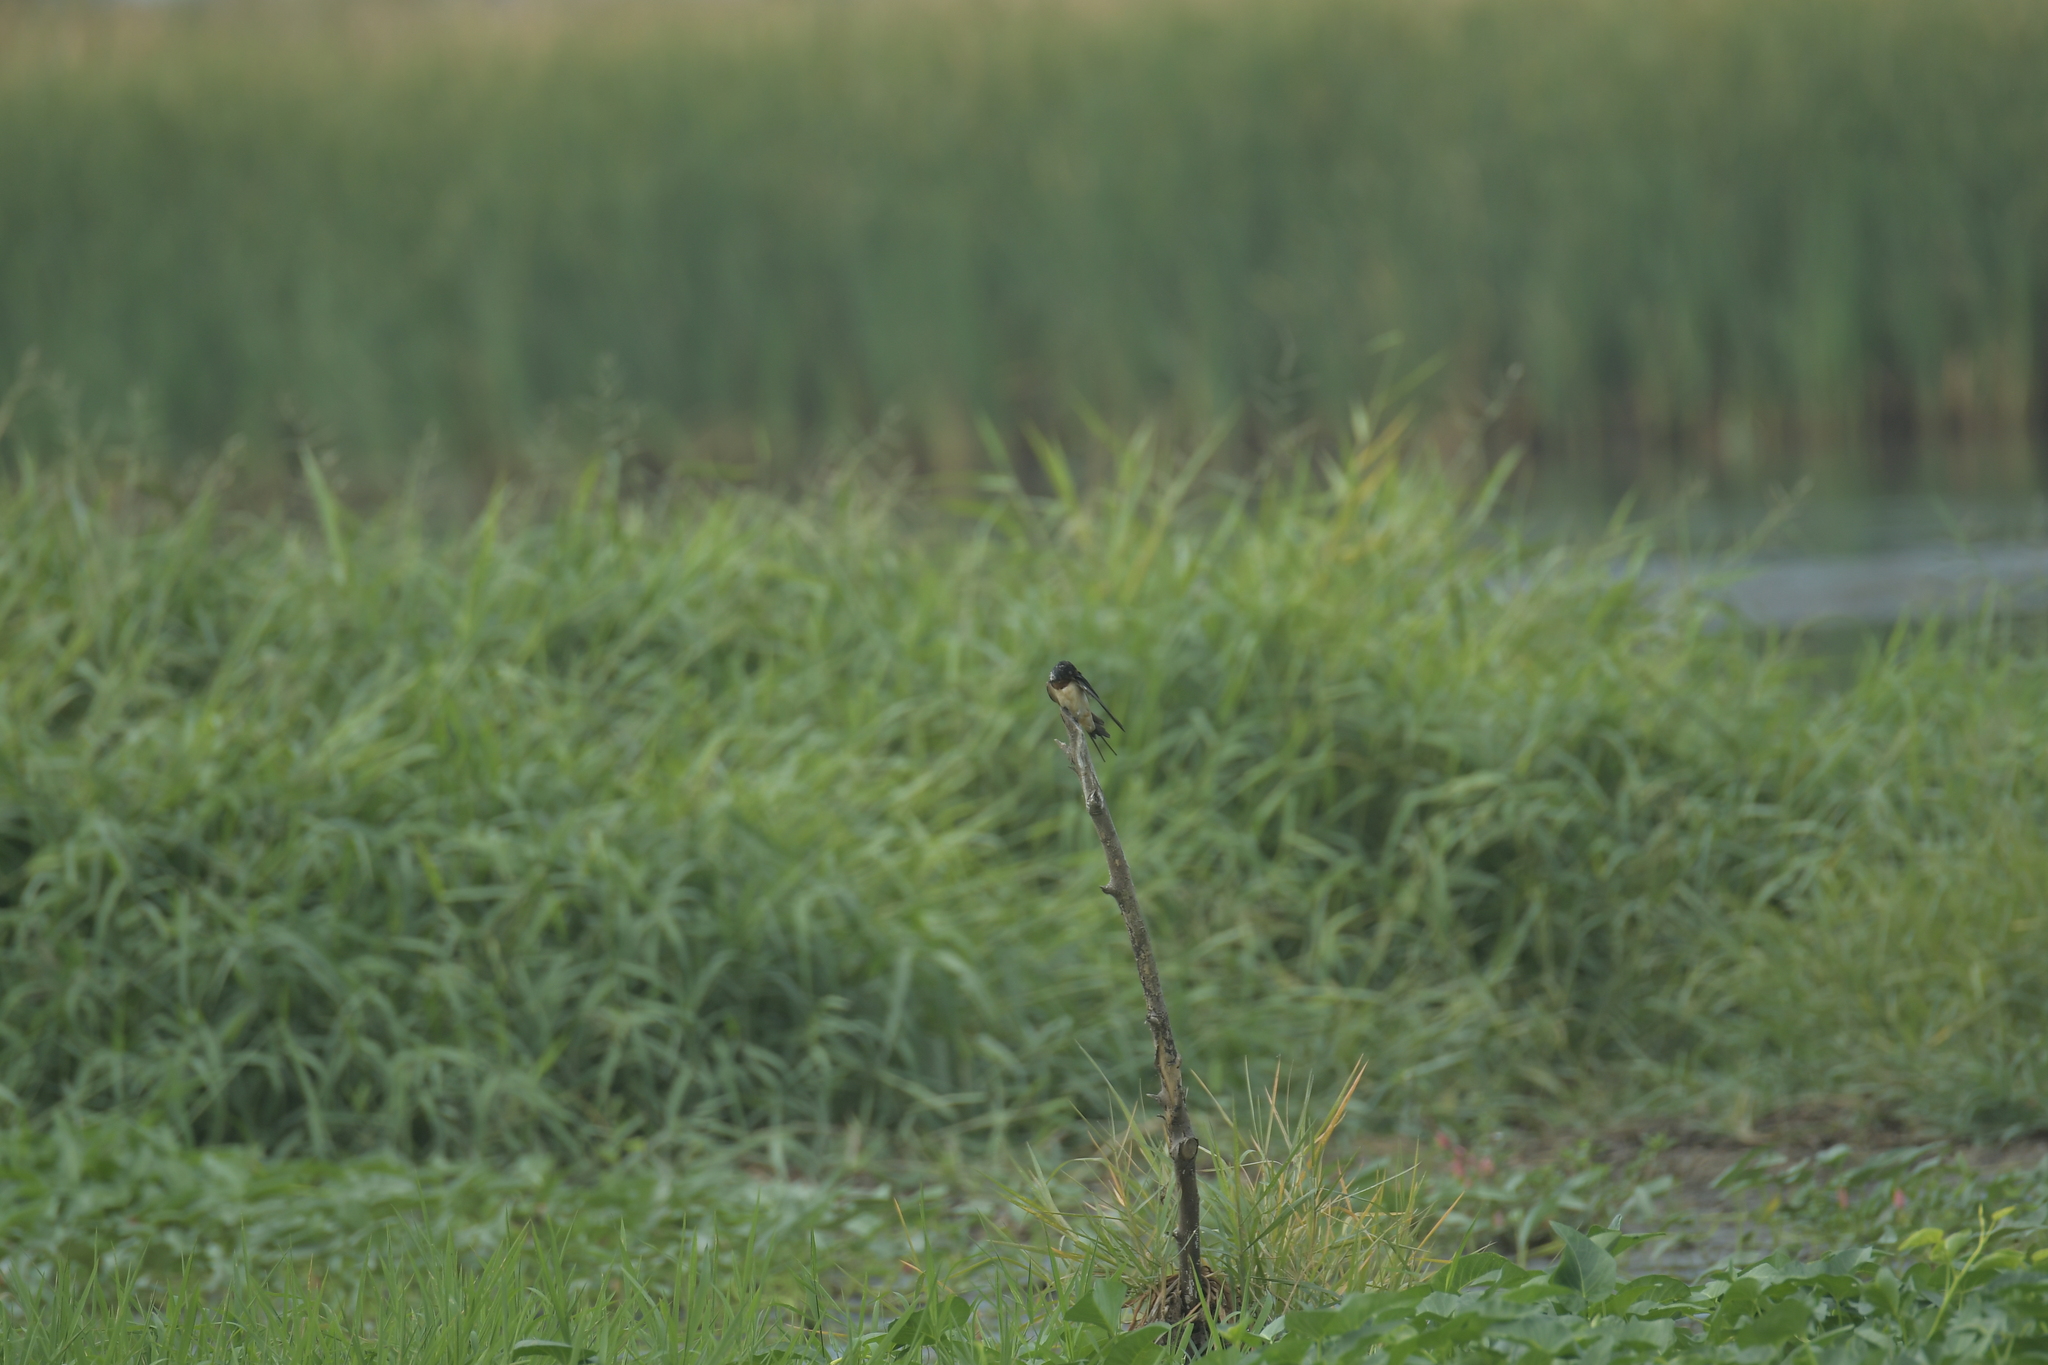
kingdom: Animalia
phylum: Chordata
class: Aves
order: Passeriformes
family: Hirundinidae
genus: Hirundo
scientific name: Hirundo rustica
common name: Barn swallow
